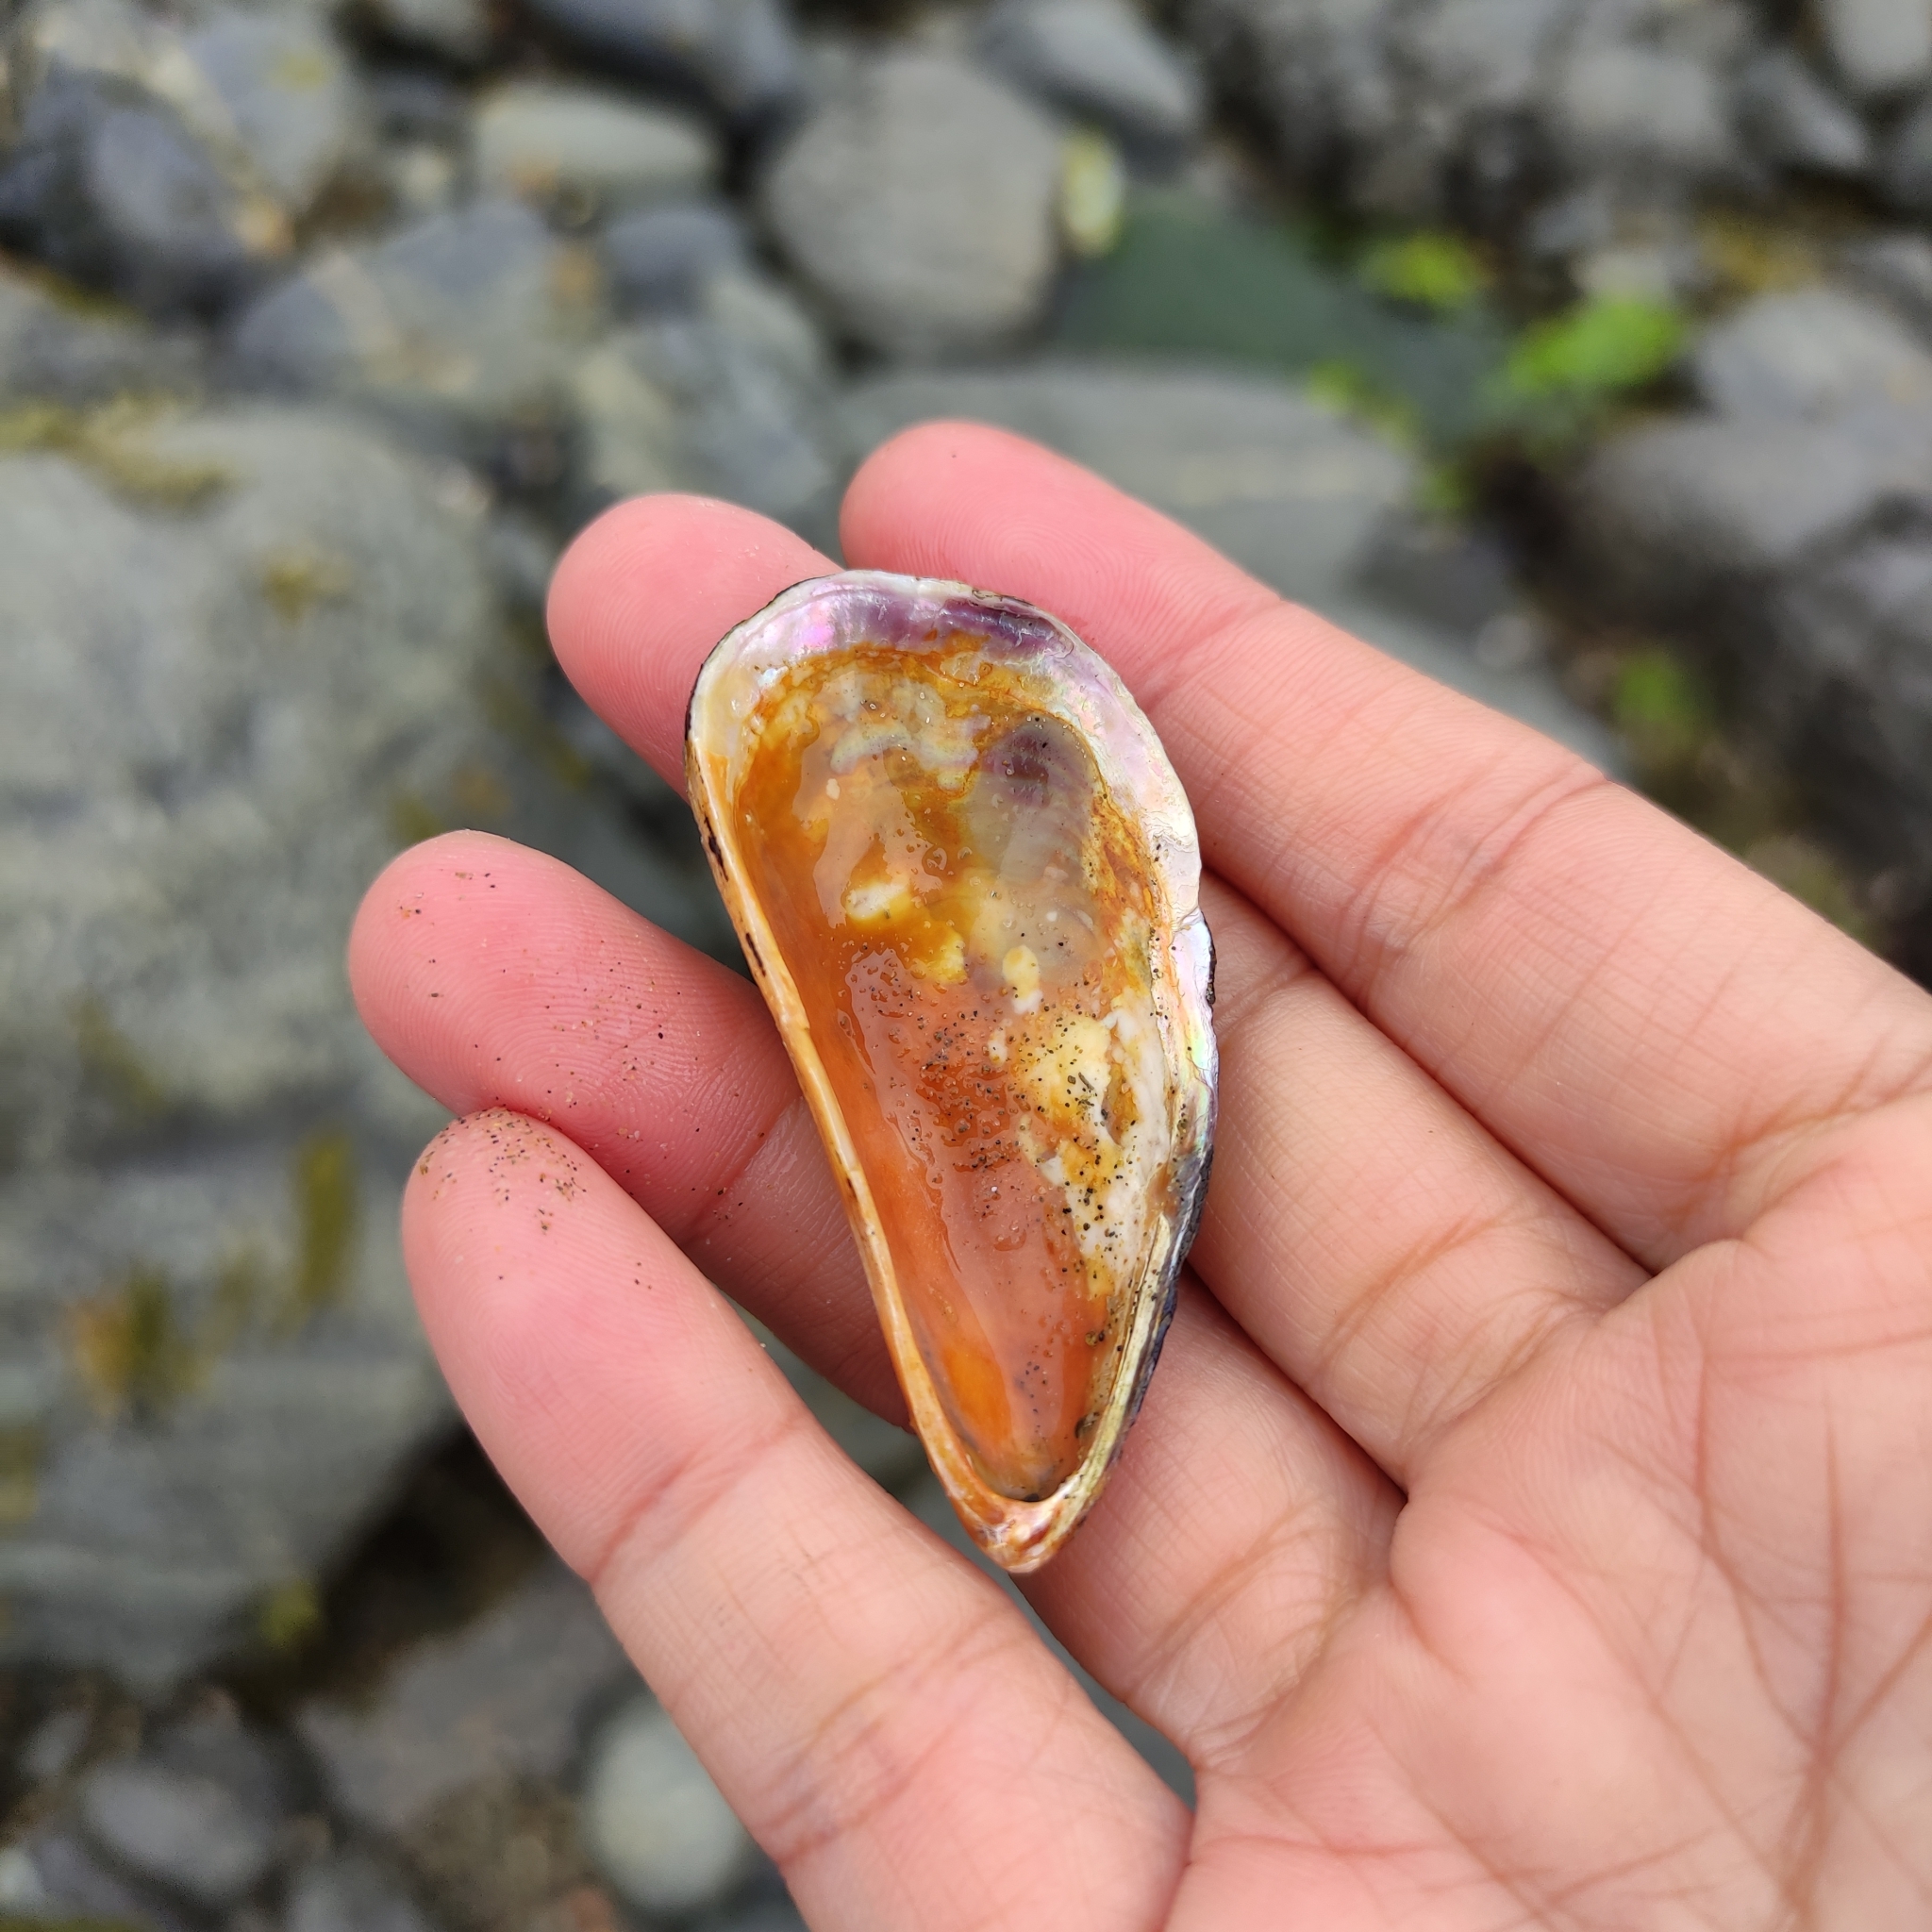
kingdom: Animalia
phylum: Mollusca
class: Bivalvia
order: Mytilida
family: Mytilidae
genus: Aulacomya
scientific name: Aulacomya maoriana
